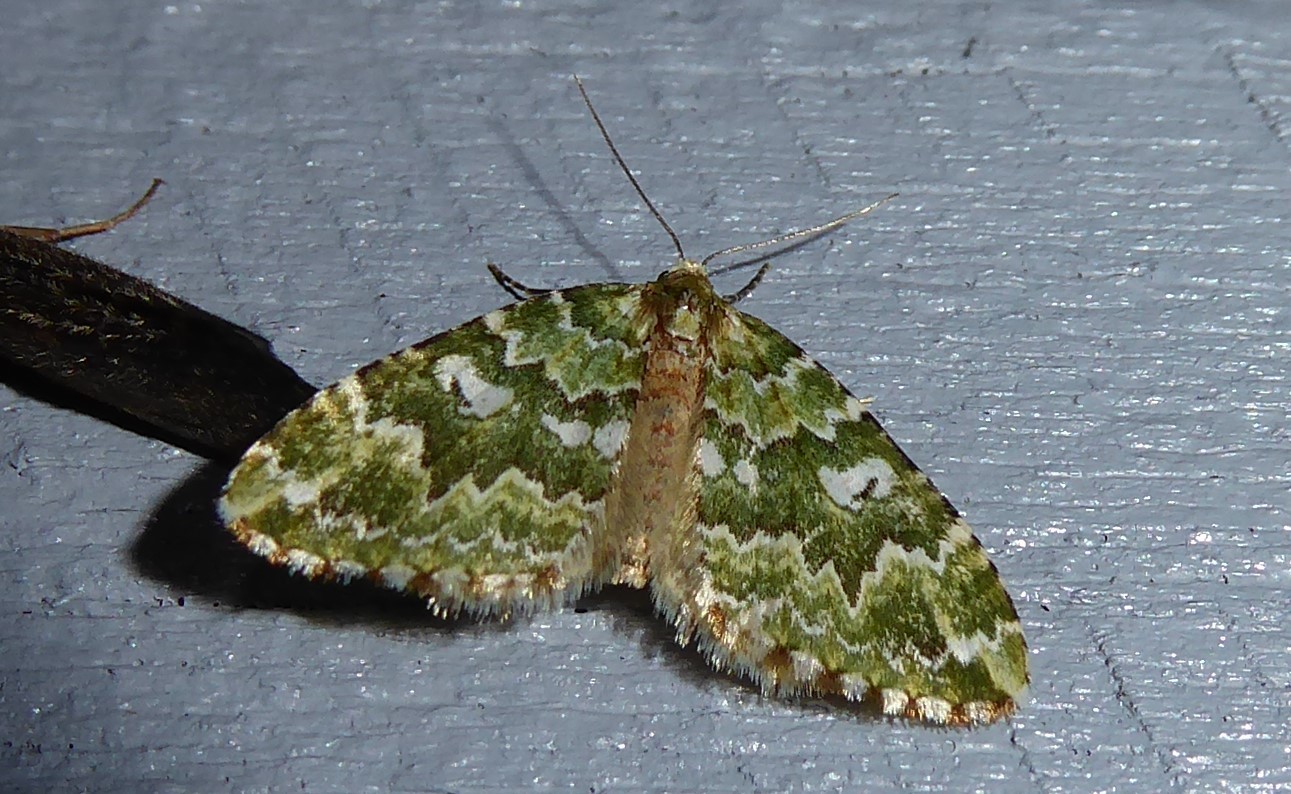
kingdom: Animalia
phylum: Arthropoda
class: Insecta
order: Lepidoptera
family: Geometridae
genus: Asaphodes
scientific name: Asaphodes beata
